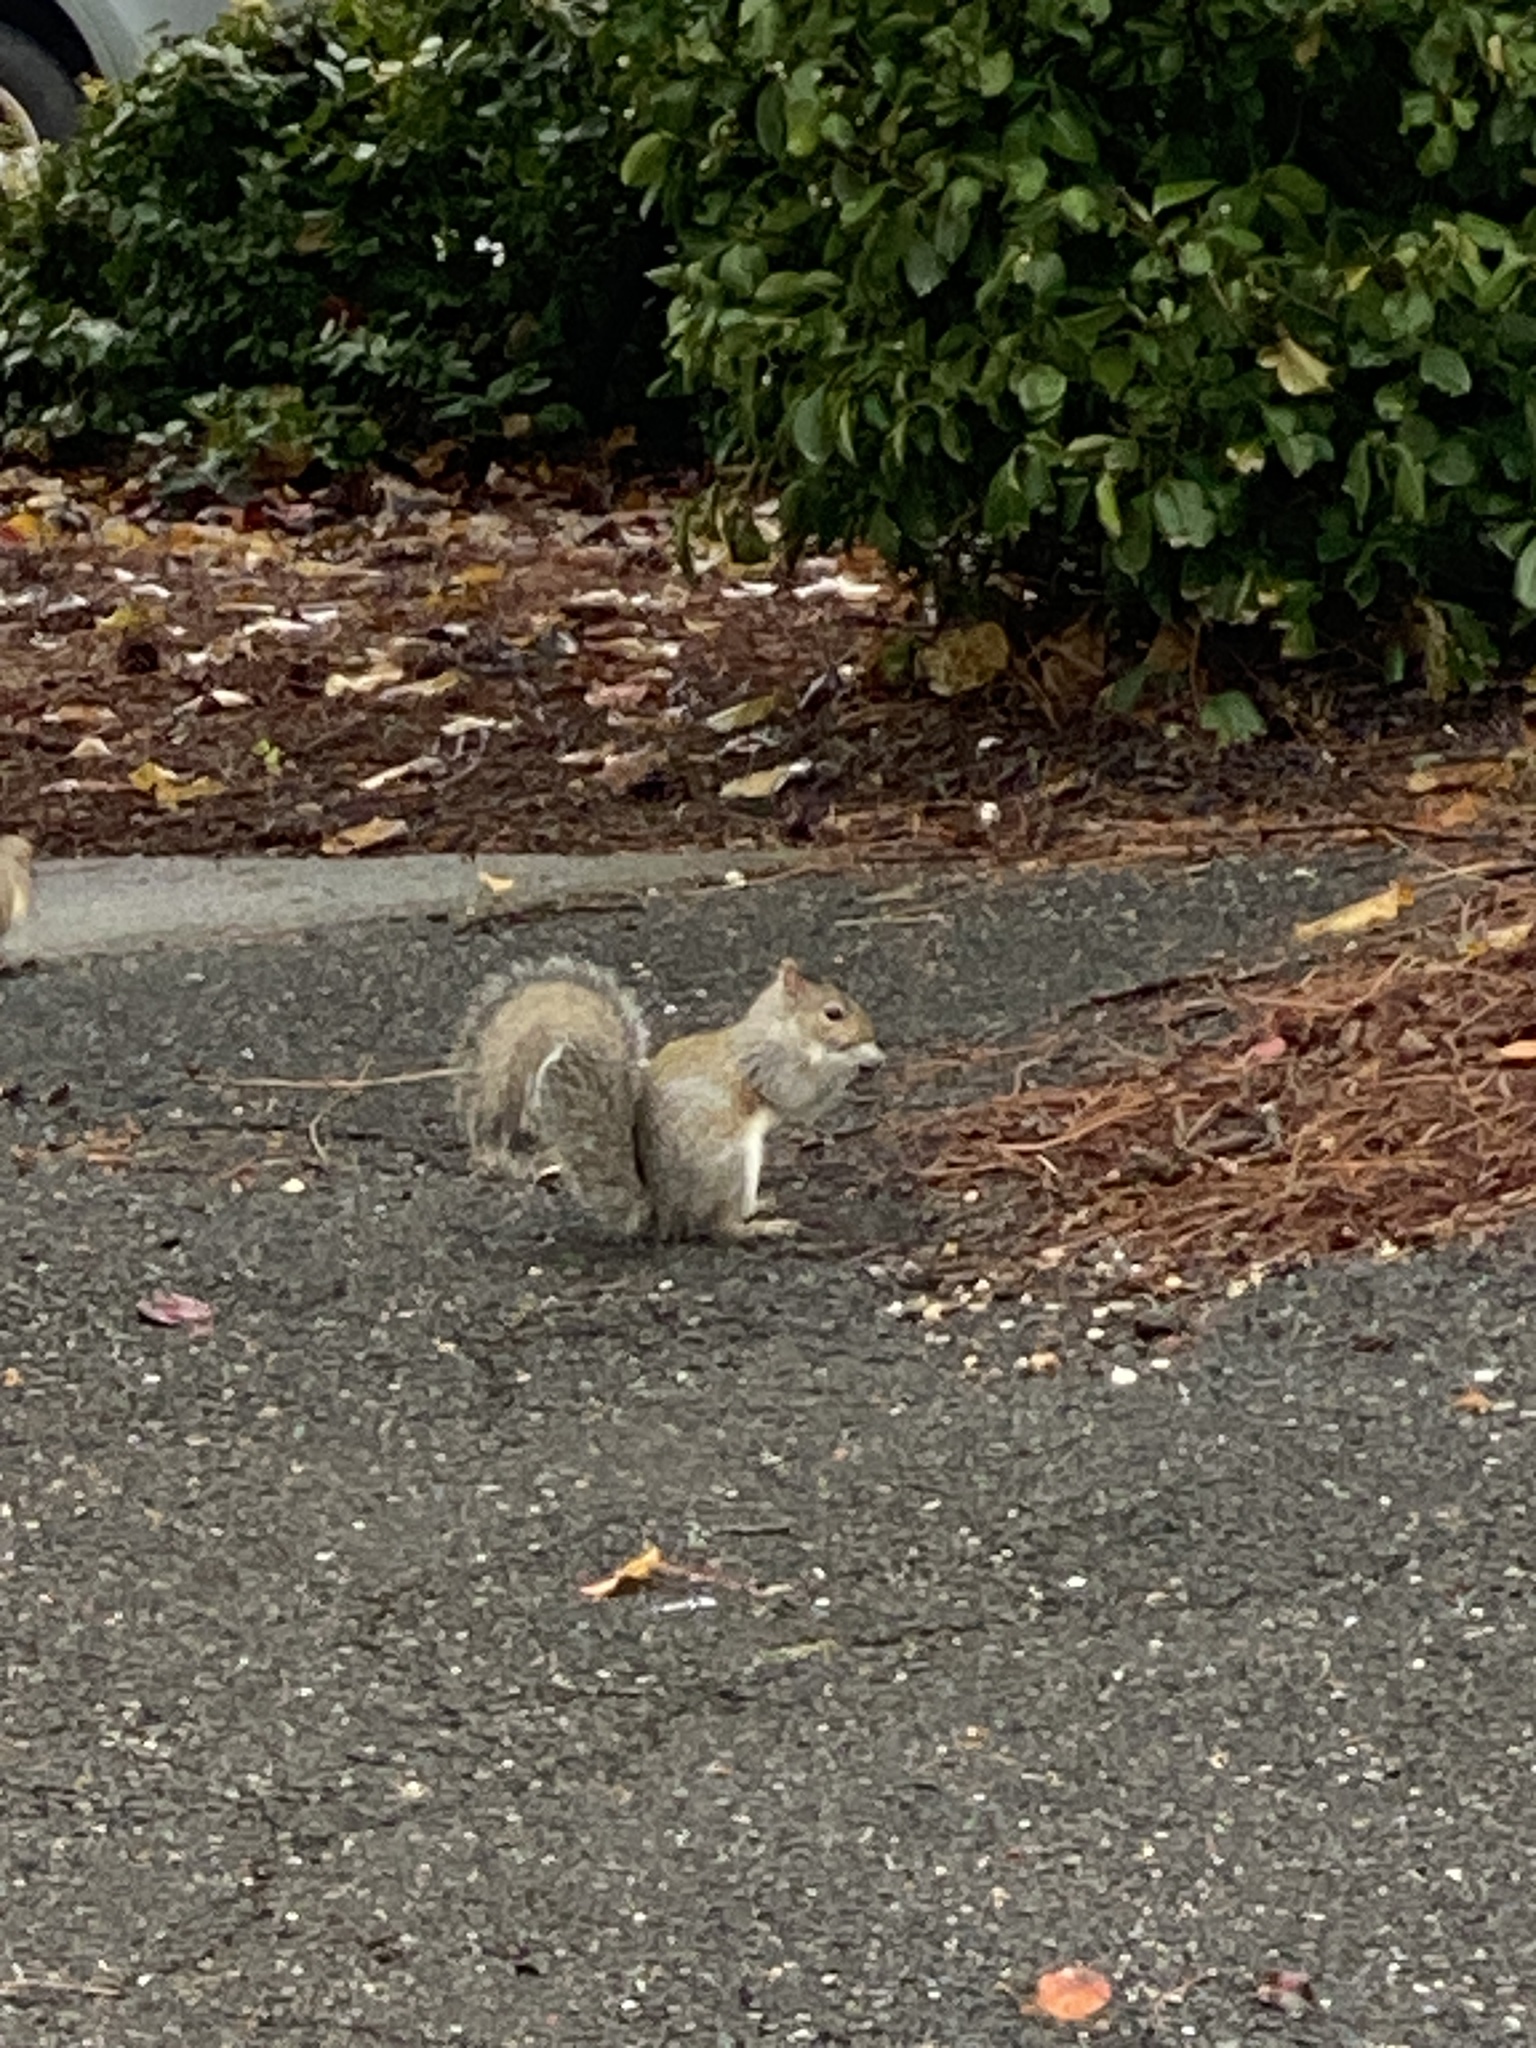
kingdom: Animalia
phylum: Chordata
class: Mammalia
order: Rodentia
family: Sciuridae
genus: Sciurus
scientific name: Sciurus carolinensis
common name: Eastern gray squirrel
